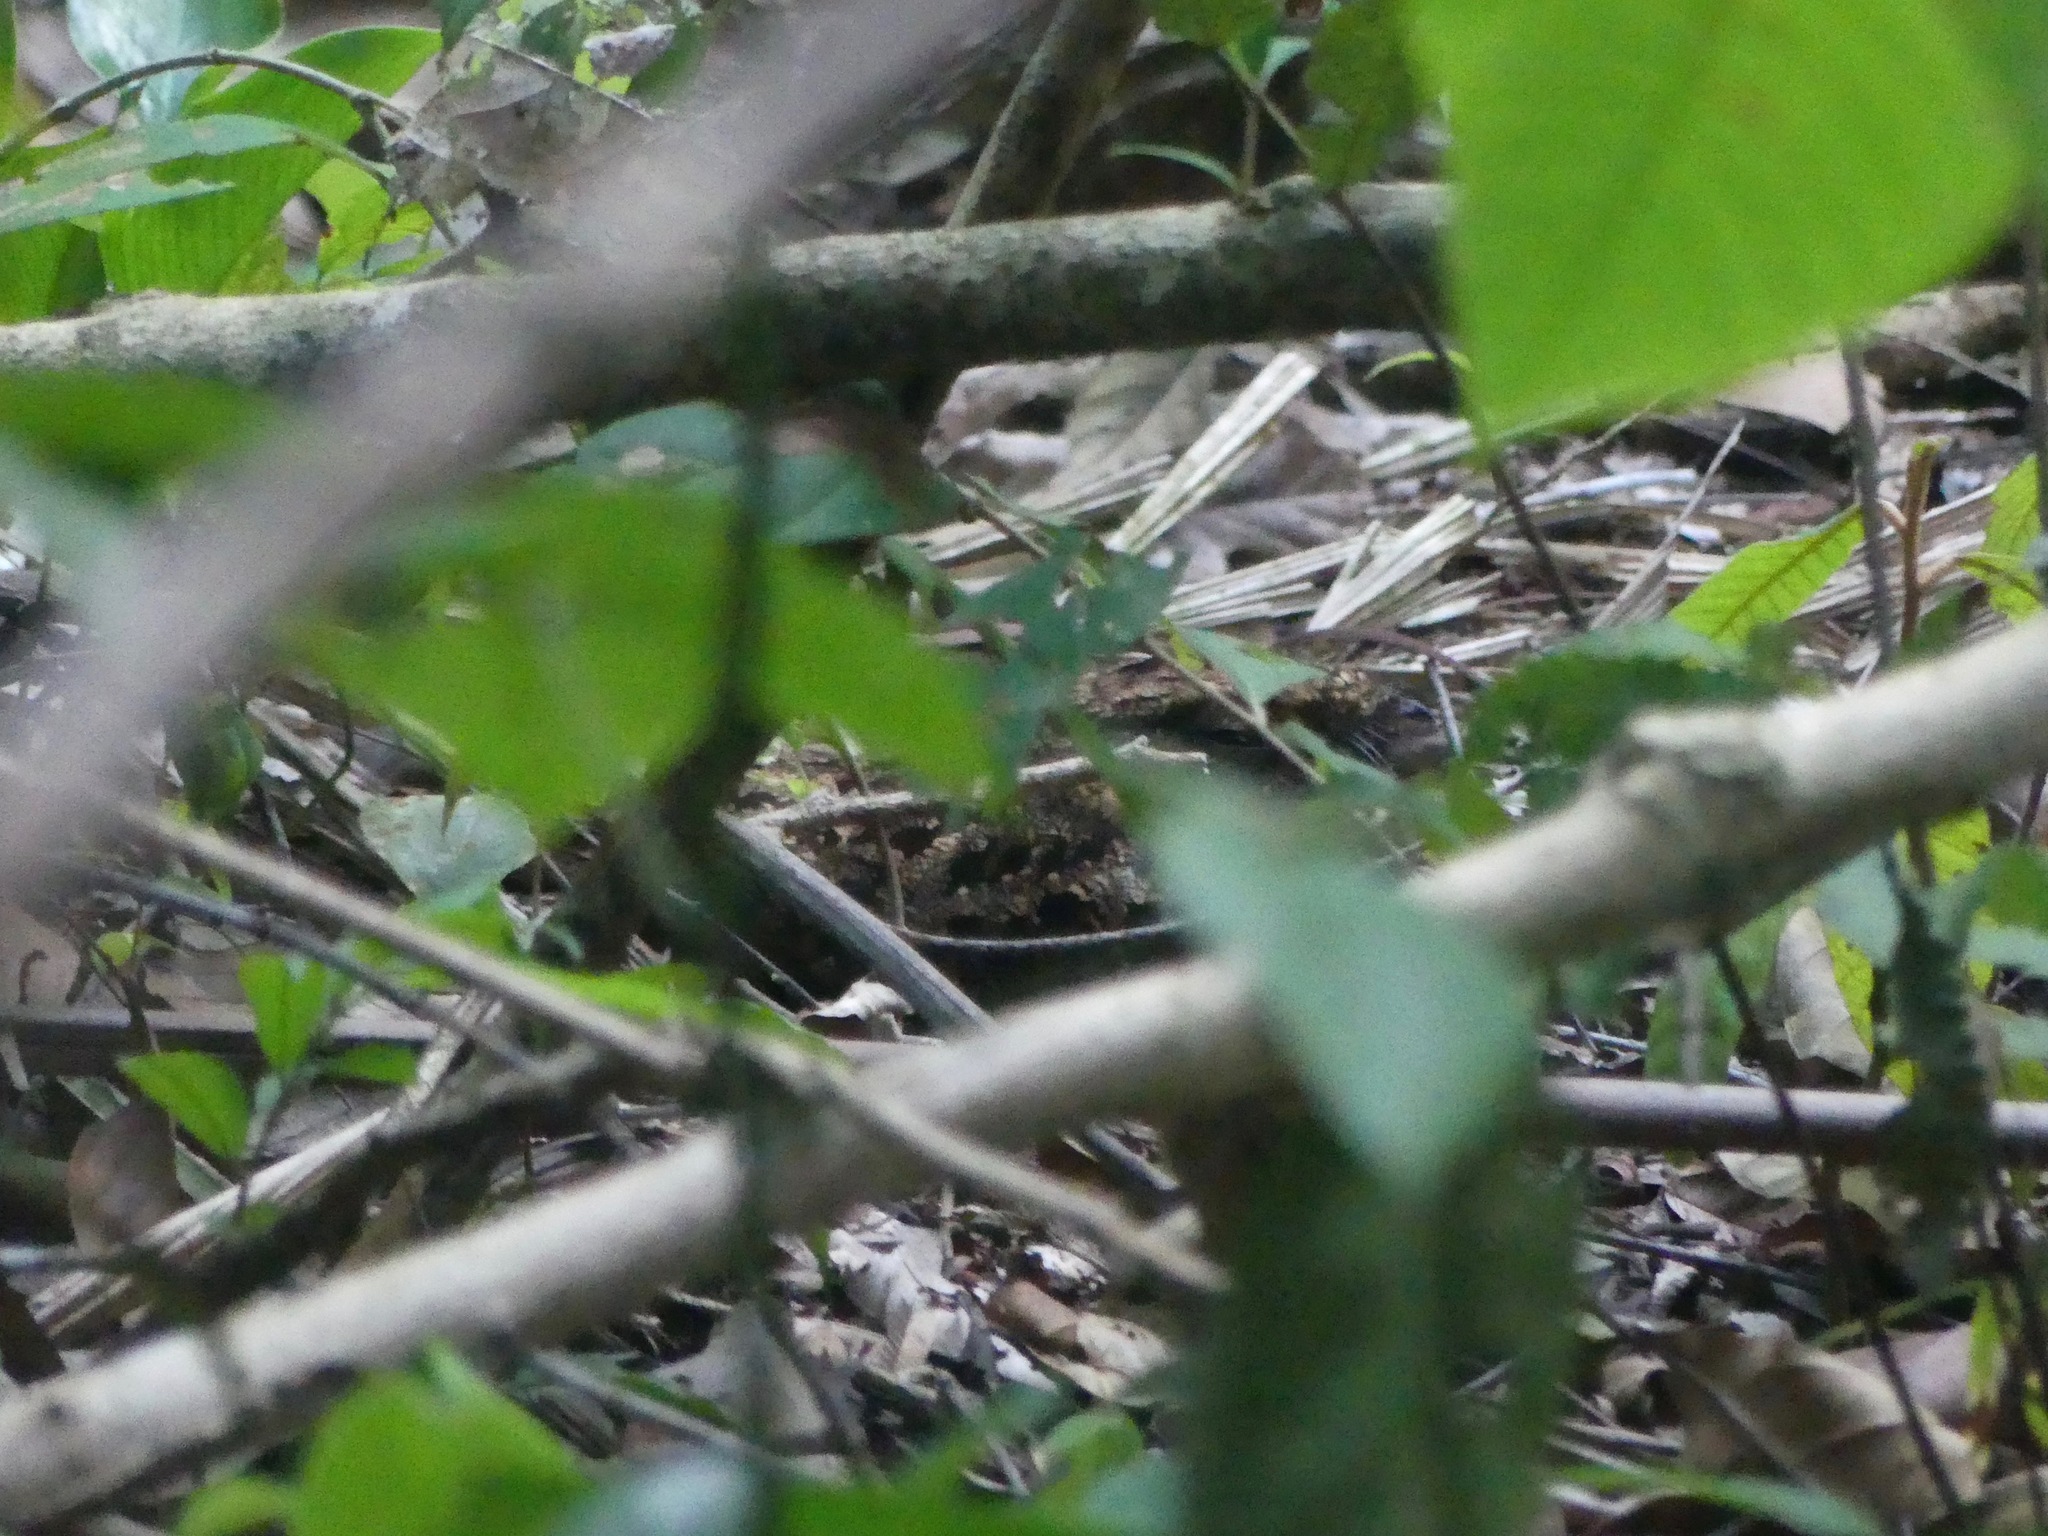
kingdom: Animalia
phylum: Chordata
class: Aves
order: Caprimulgiformes
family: Caprimulgidae
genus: Antrostomus
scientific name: Antrostomus sericocaudatus
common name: Silky-tailed nightjar
